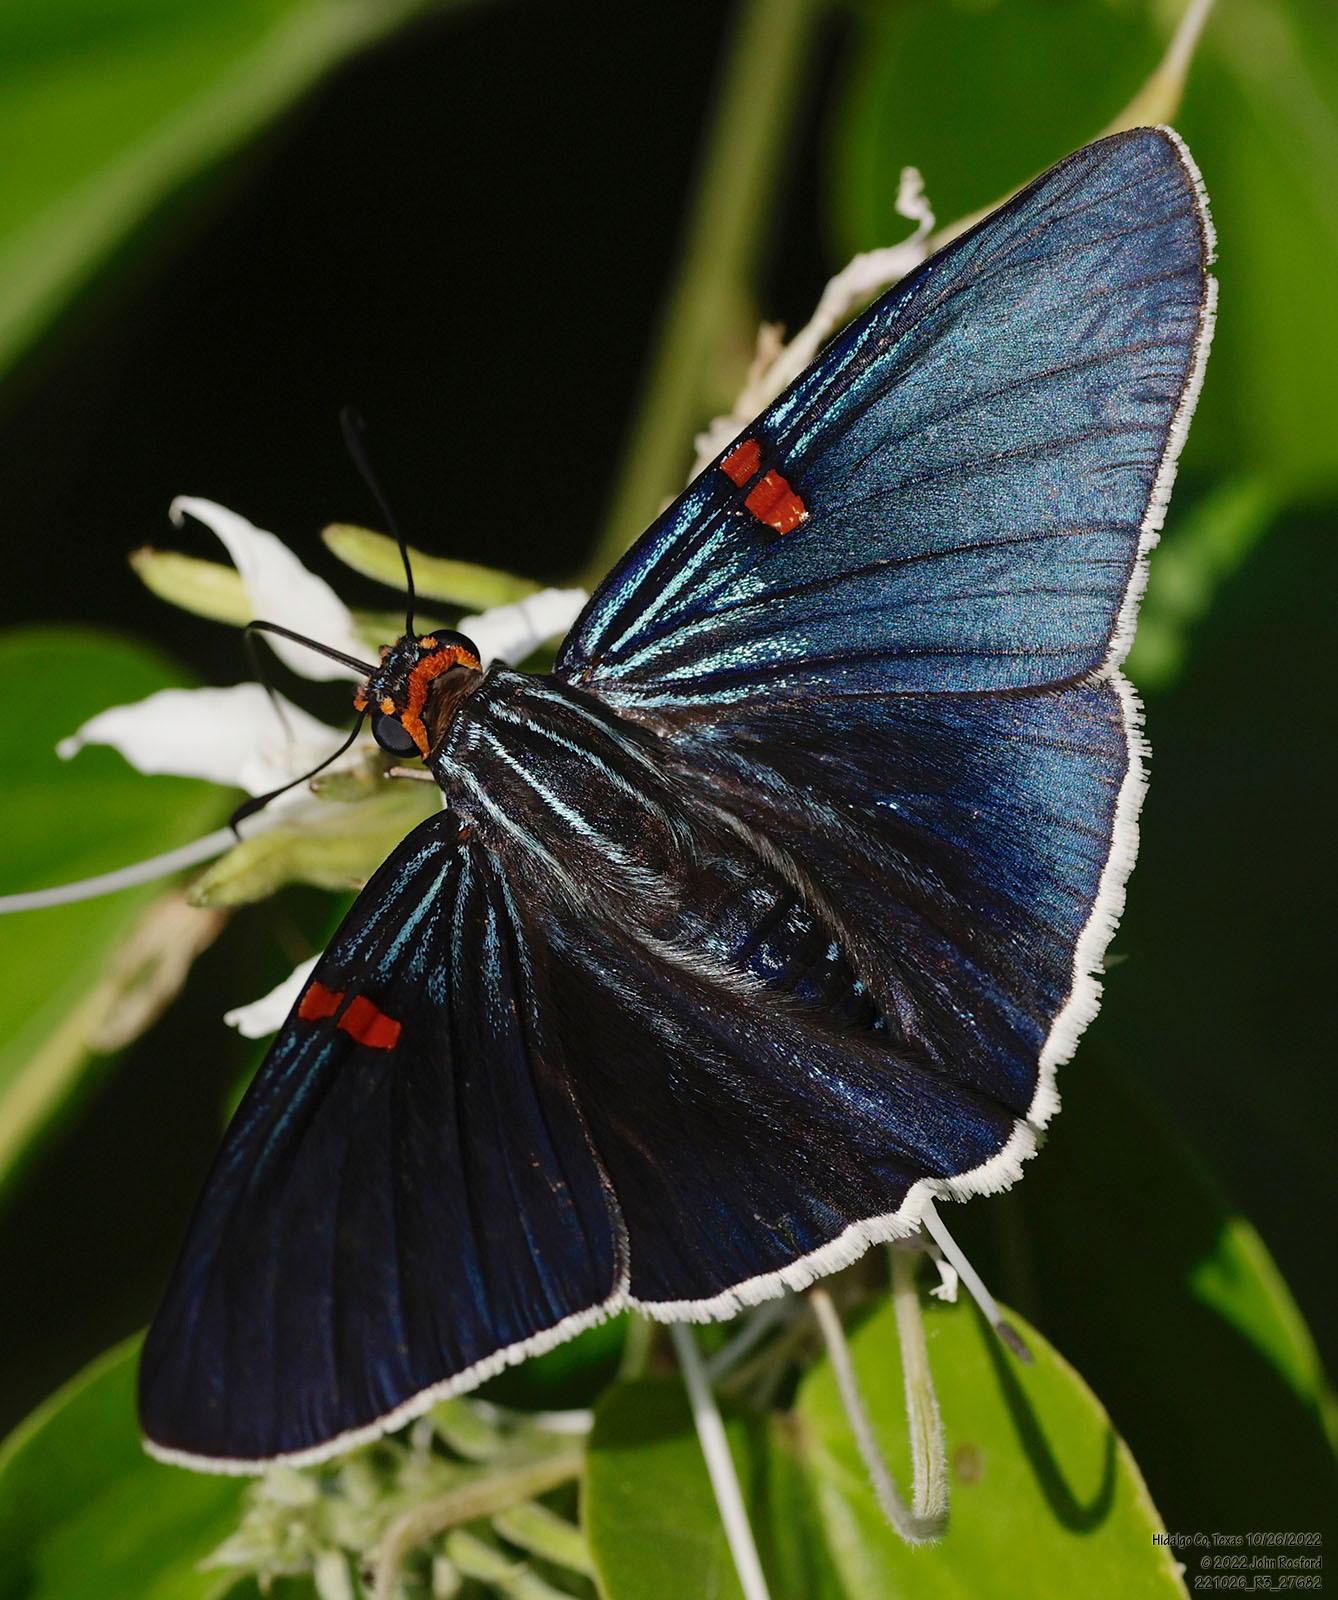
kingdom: Animalia
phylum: Arthropoda
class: Insecta
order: Lepidoptera
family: Hesperiidae
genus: Phocides
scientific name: Phocides lilea
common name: Guava skipper
